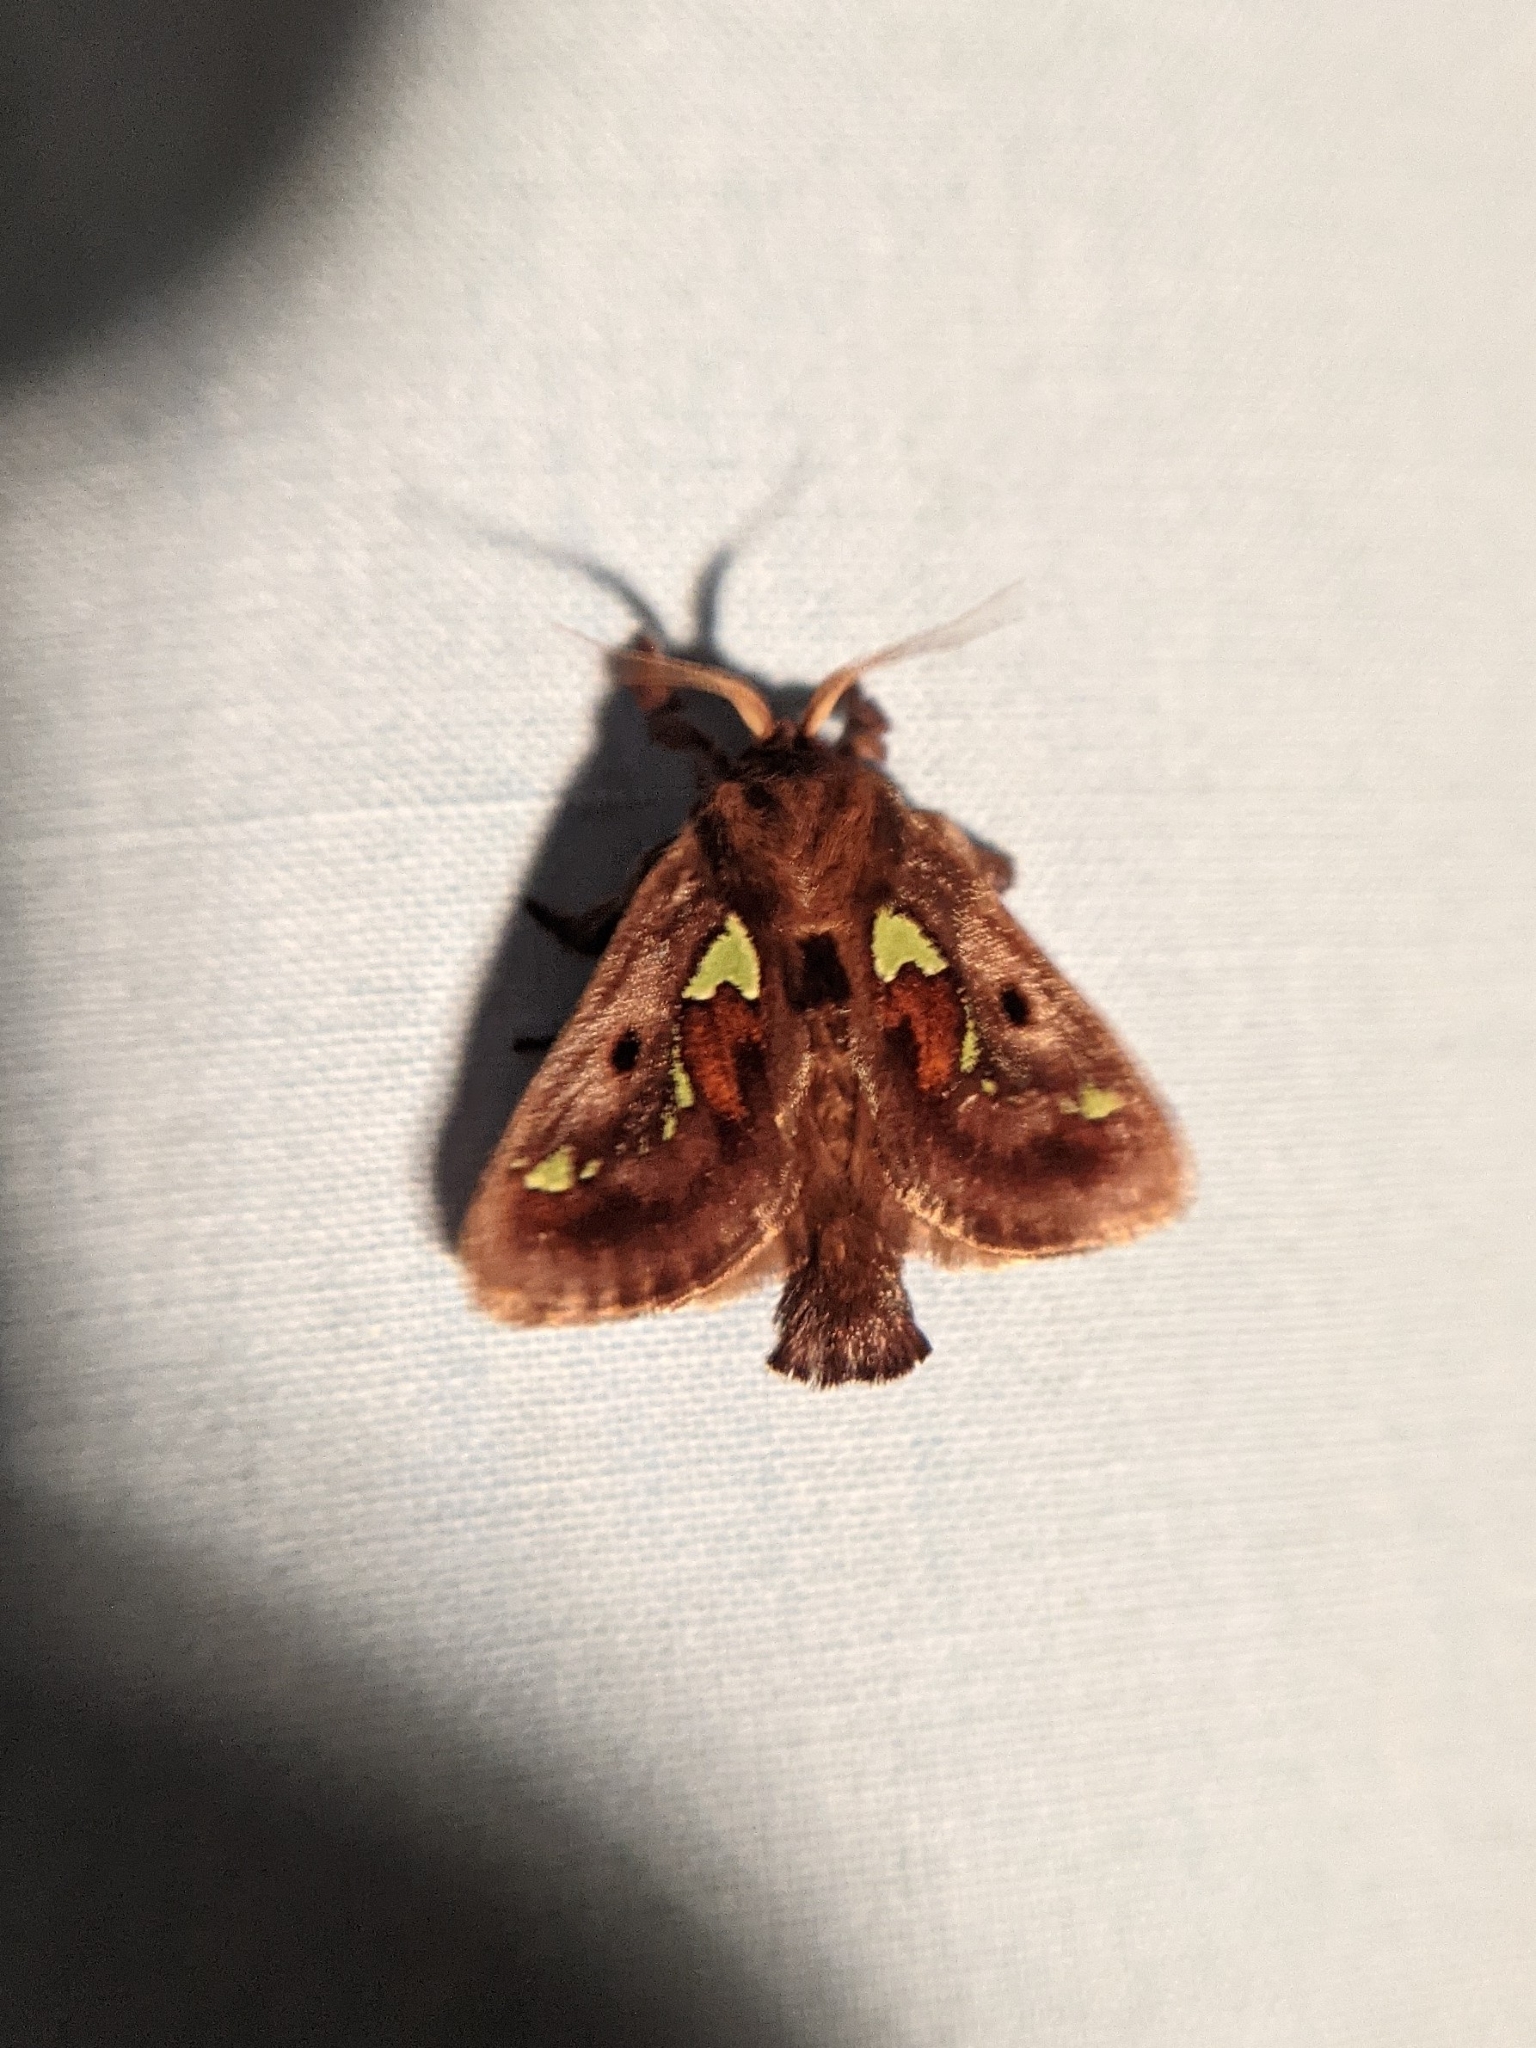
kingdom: Animalia
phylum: Arthropoda
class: Insecta
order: Lepidoptera
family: Limacodidae
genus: Euclea
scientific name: Euclea delphinii
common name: Spiny oak-slug moth
